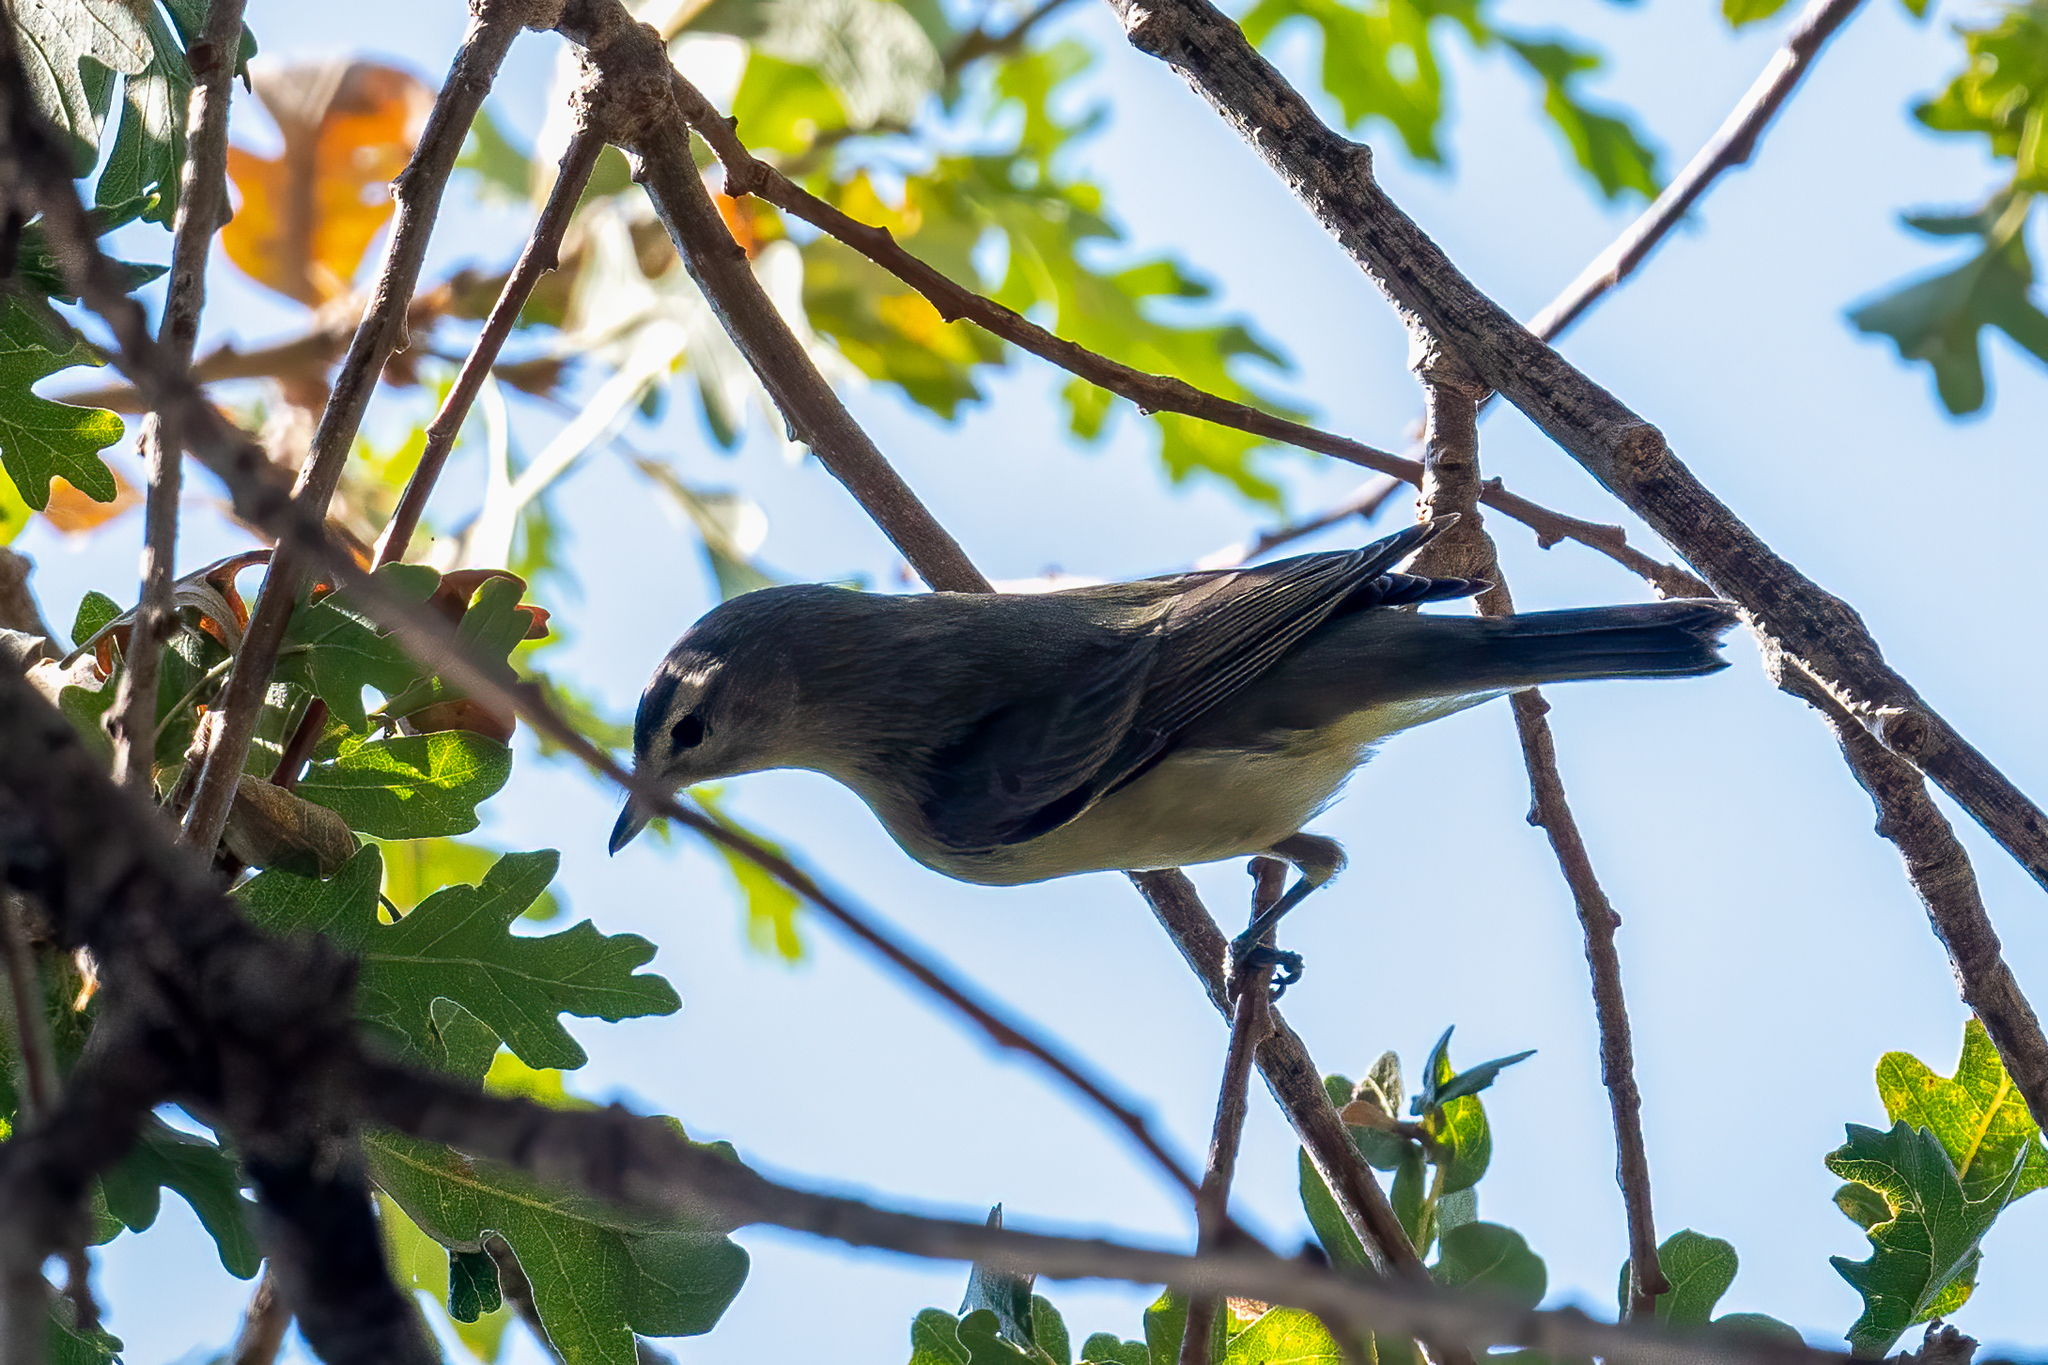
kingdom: Animalia
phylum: Chordata
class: Aves
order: Passeriformes
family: Vireonidae
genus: Vireo
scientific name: Vireo gilvus
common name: Warbling vireo
